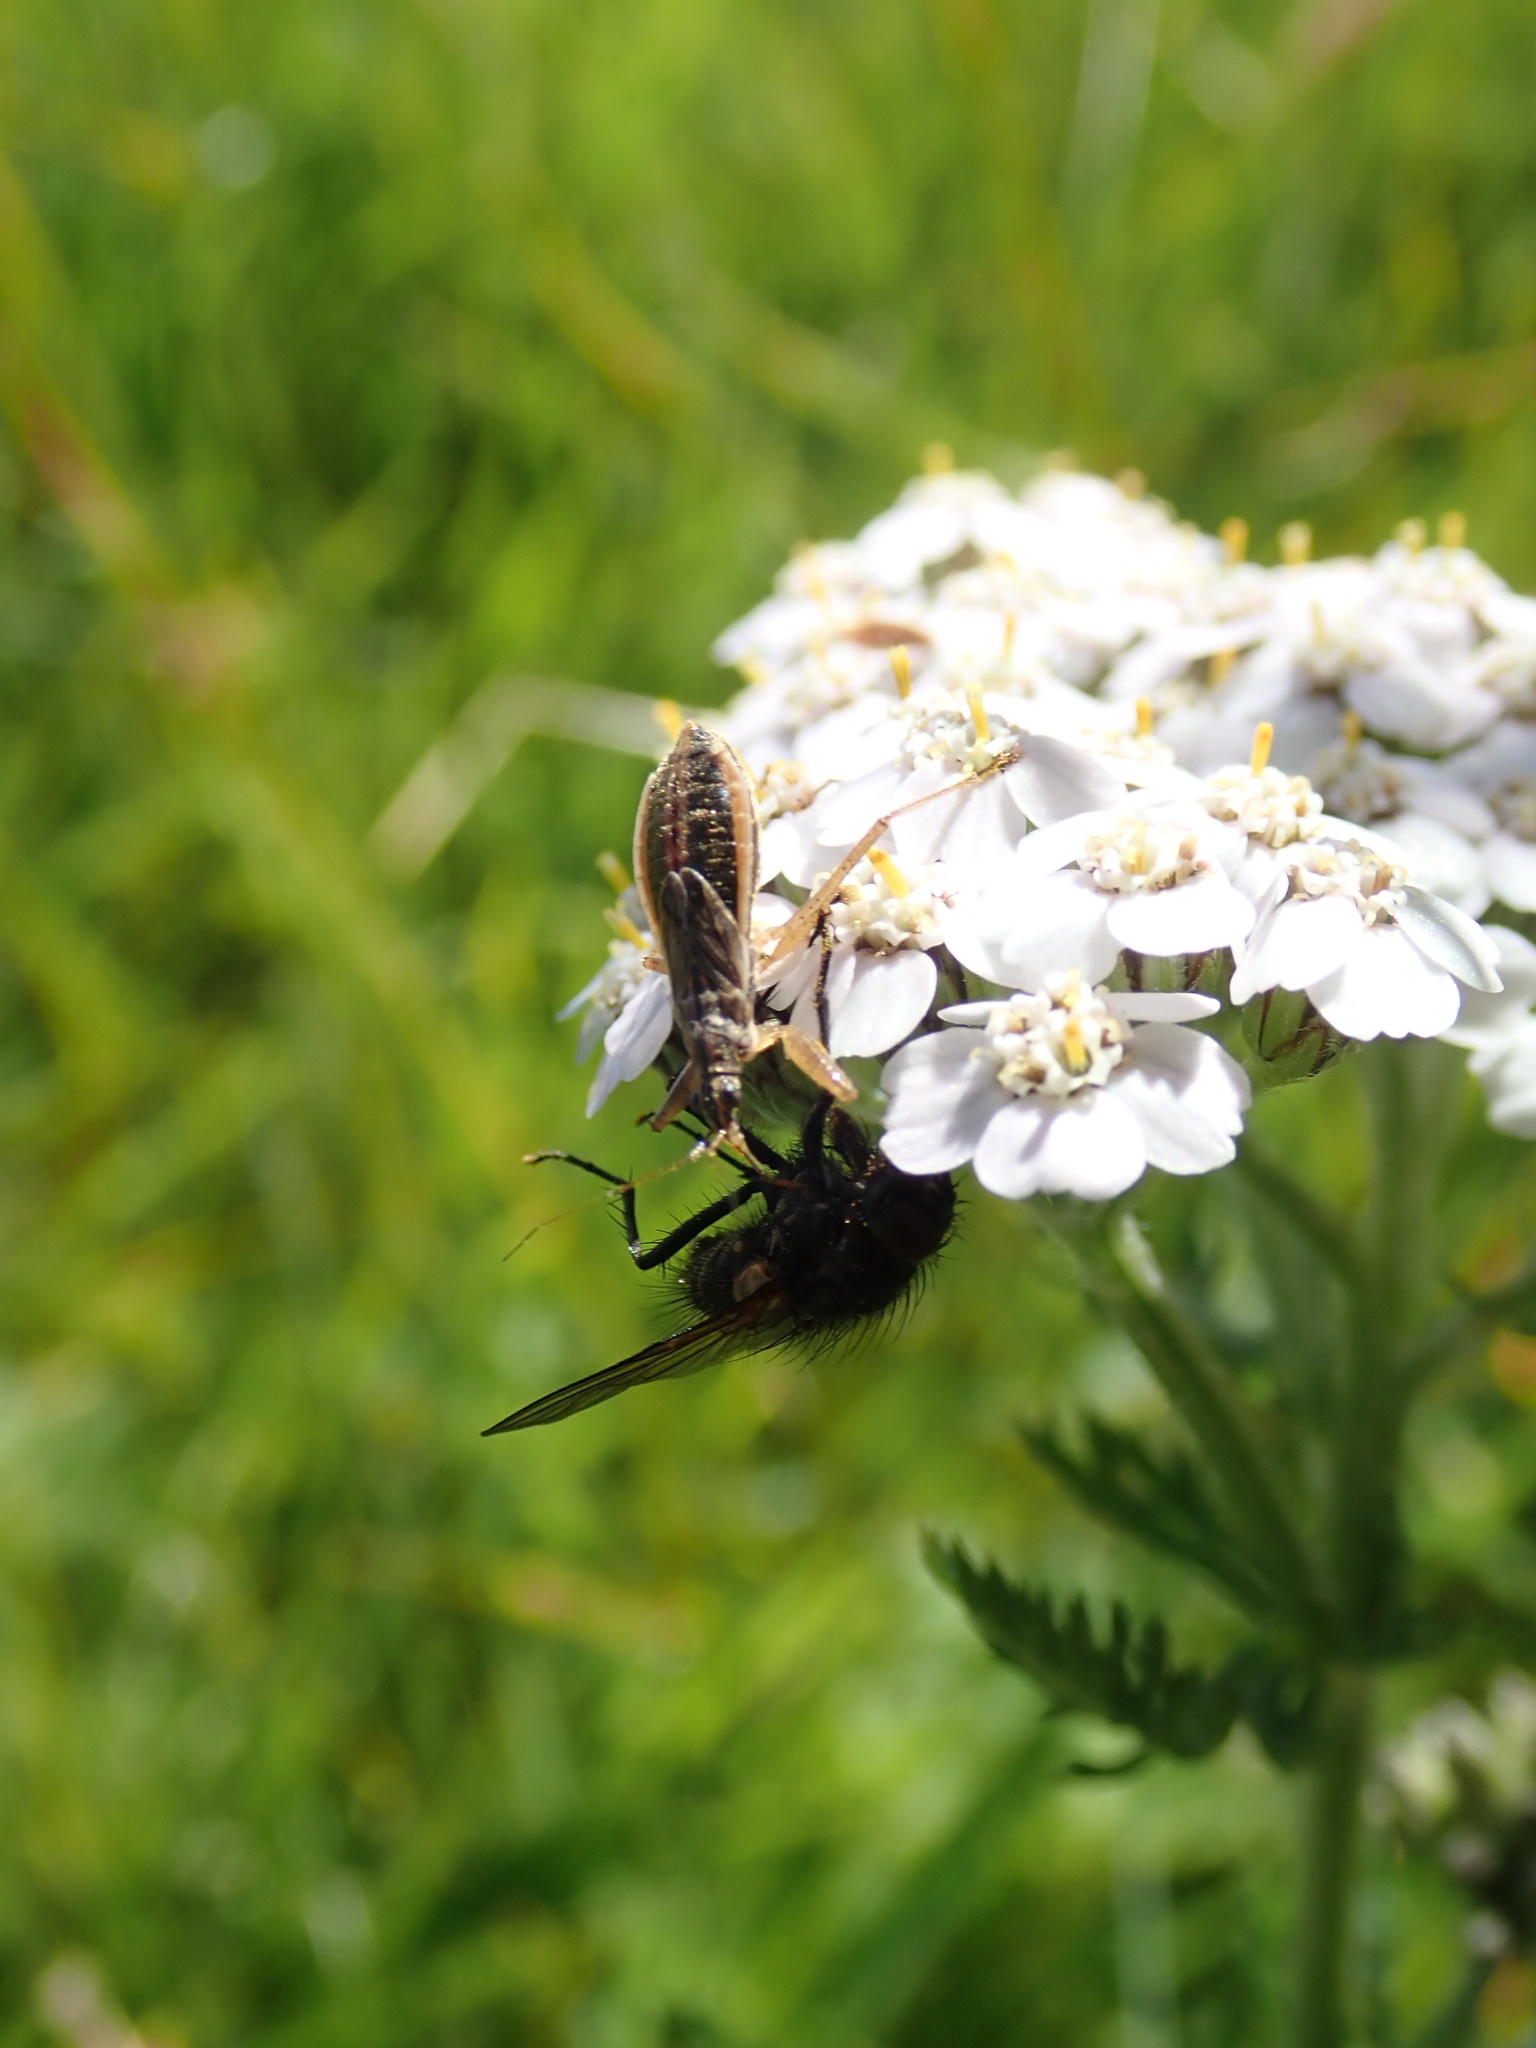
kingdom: Animalia
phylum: Arthropoda
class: Insecta
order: Hemiptera
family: Nabidae
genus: Nabis
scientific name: Nabis flavomarginatus
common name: Broad damselbug
